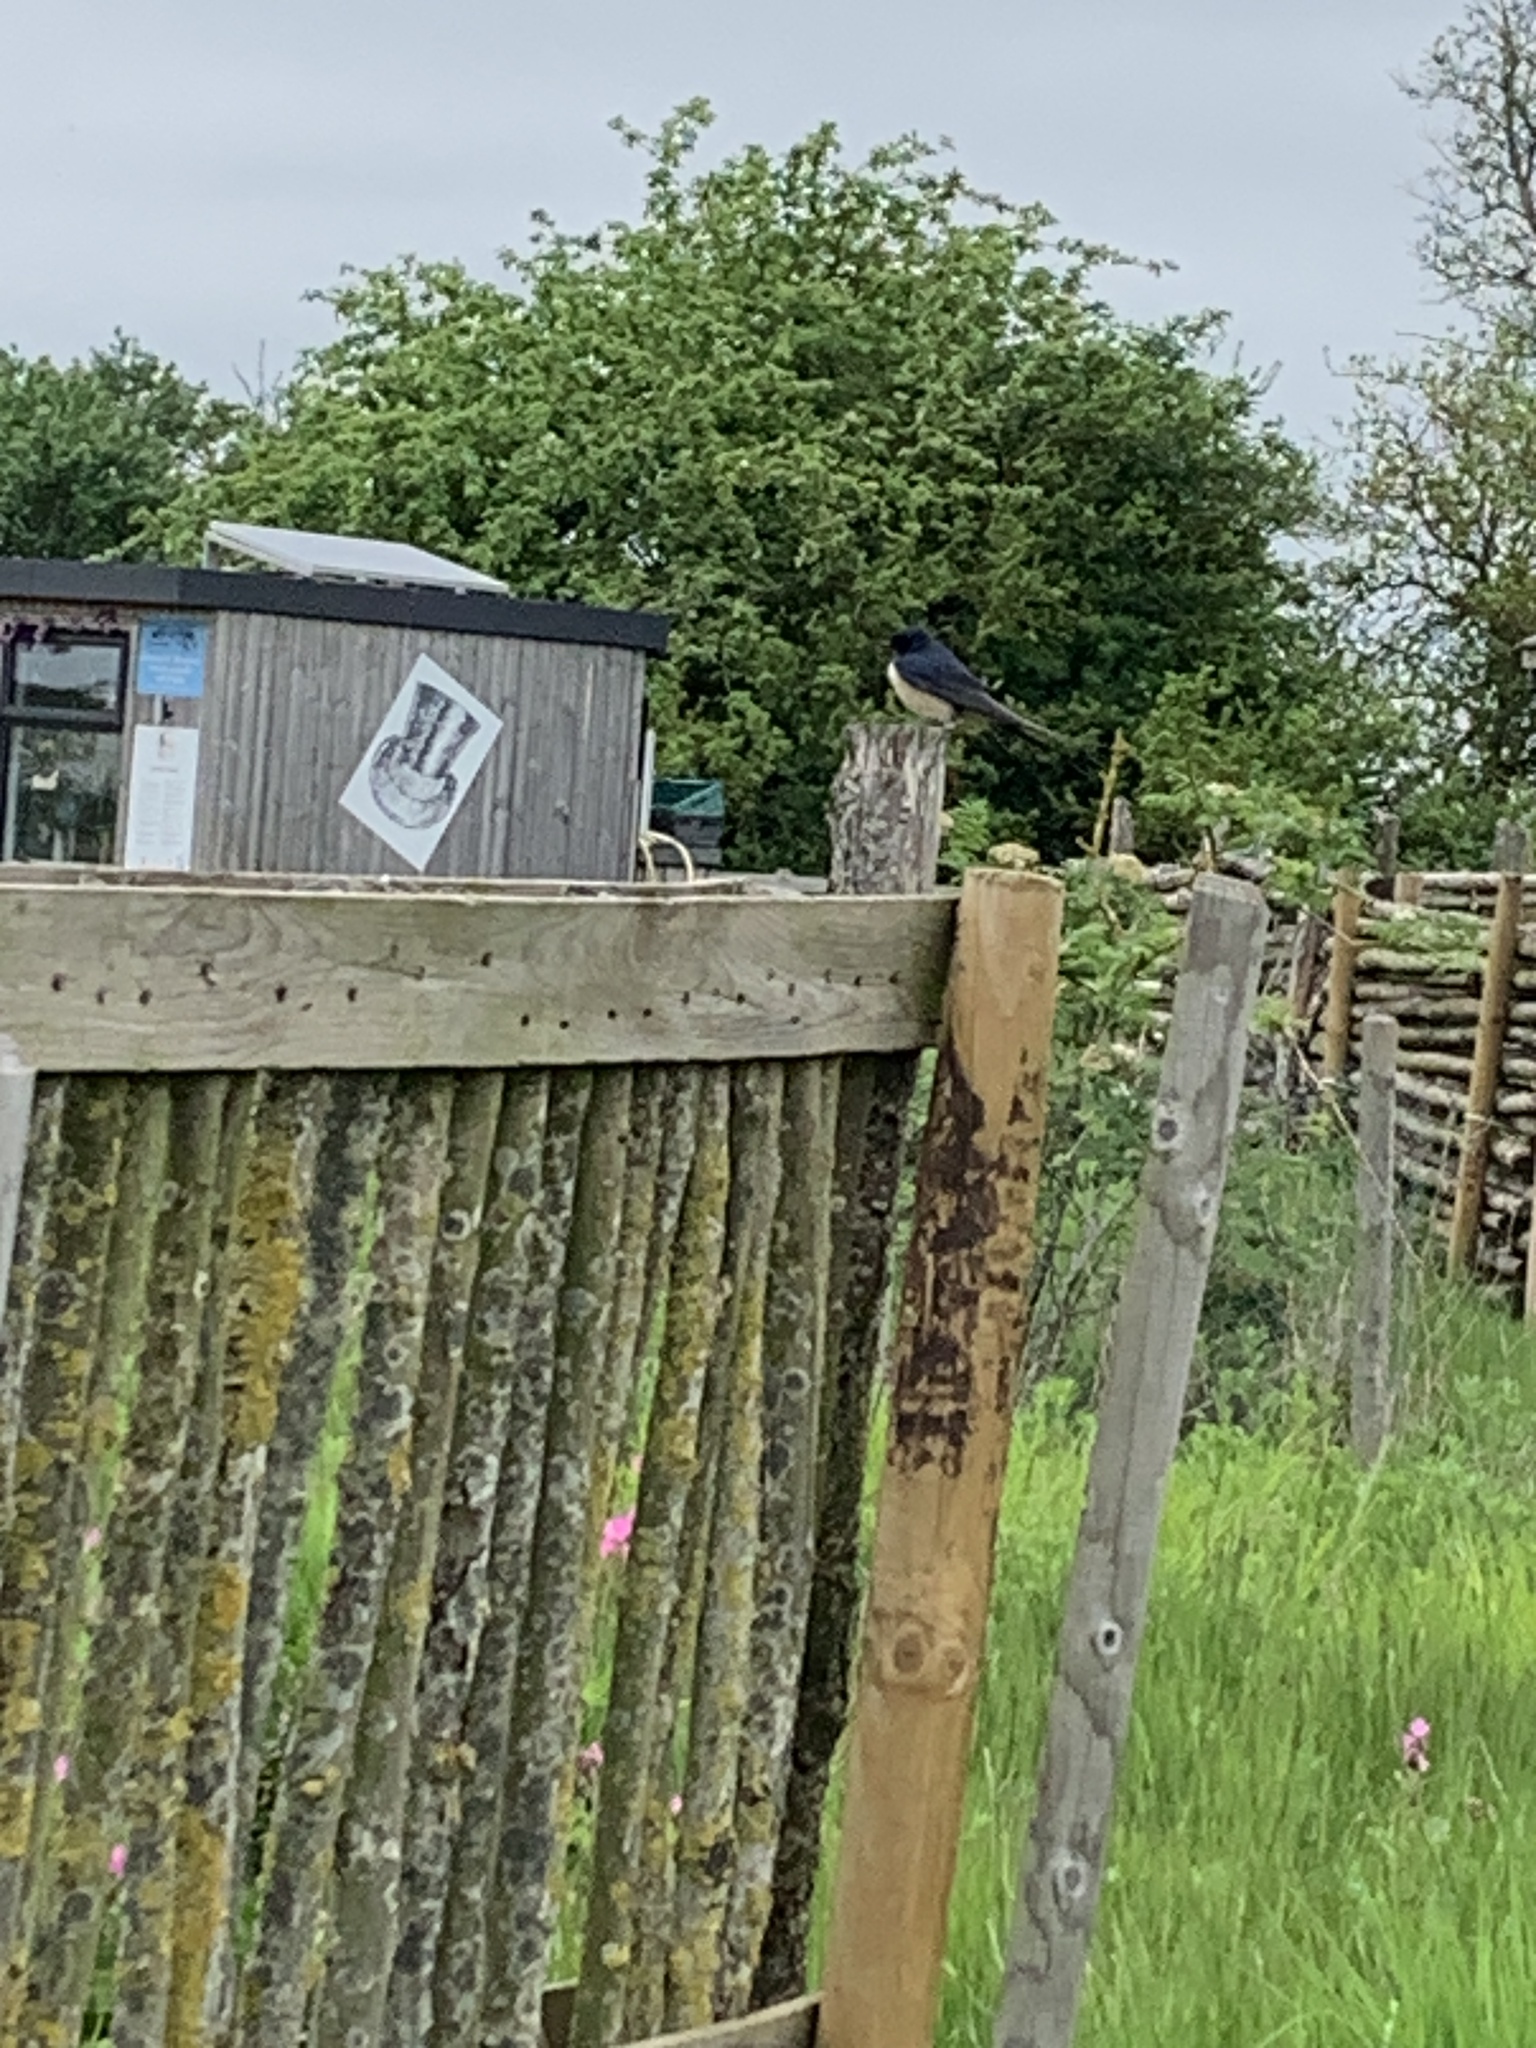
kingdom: Animalia
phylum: Chordata
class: Aves
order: Passeriformes
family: Hirundinidae
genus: Hirundo
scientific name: Hirundo rustica
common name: Barn swallow
